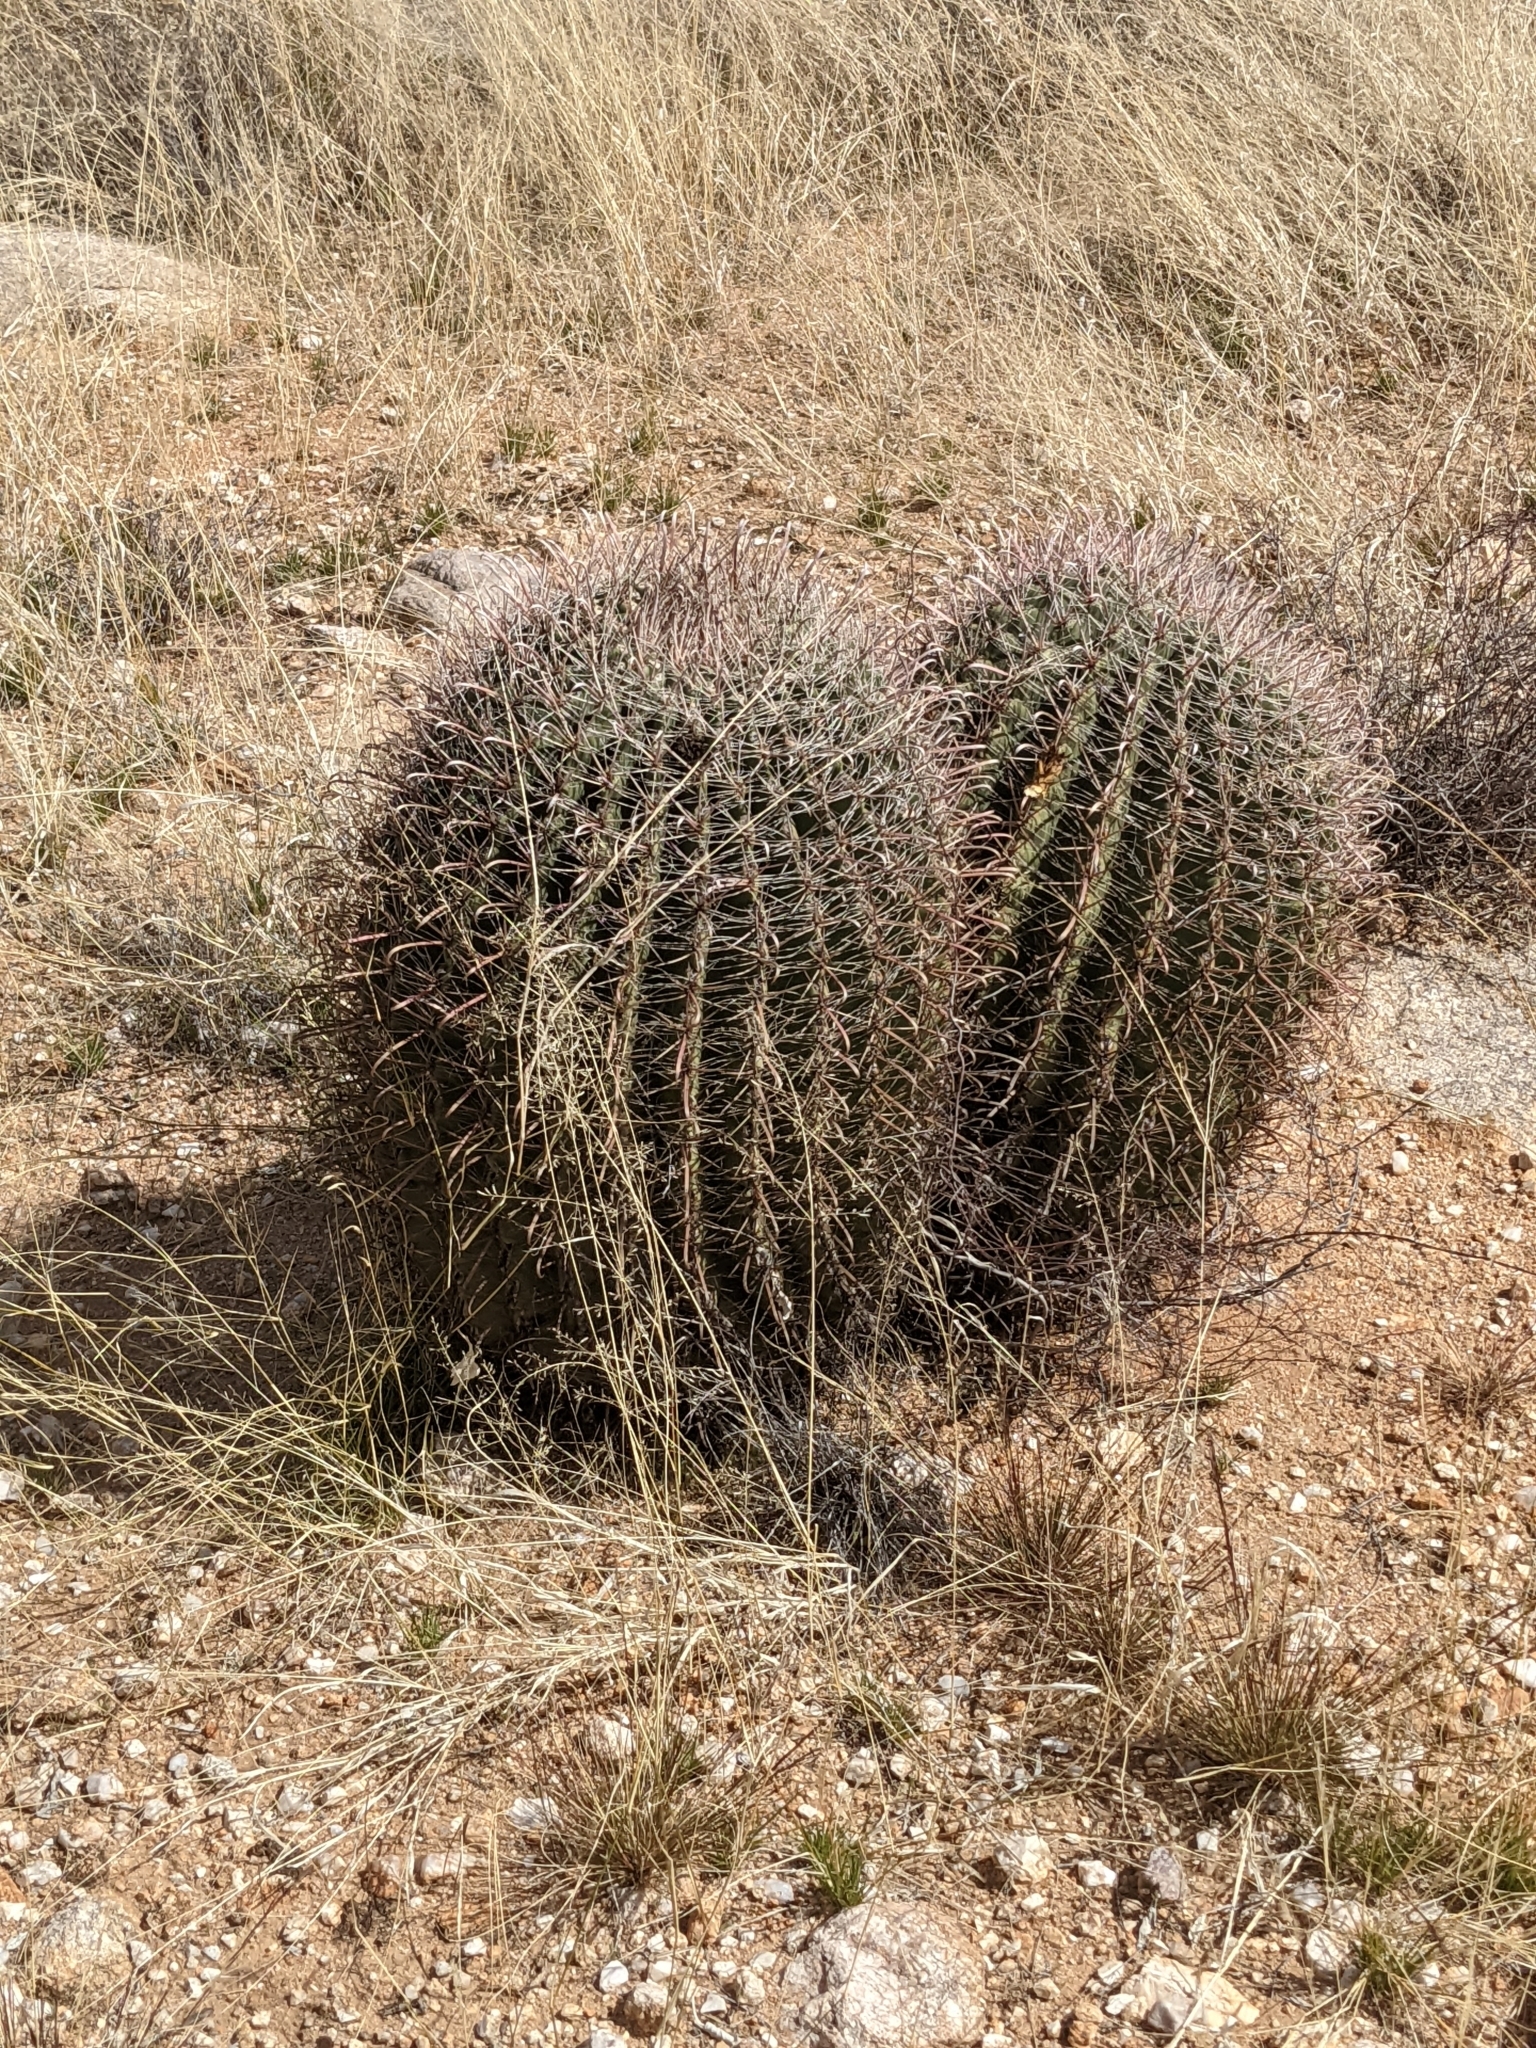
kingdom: Plantae
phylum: Tracheophyta
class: Magnoliopsida
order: Caryophyllales
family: Cactaceae
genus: Ferocactus
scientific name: Ferocactus wislizeni
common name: Candy barrel cactus
